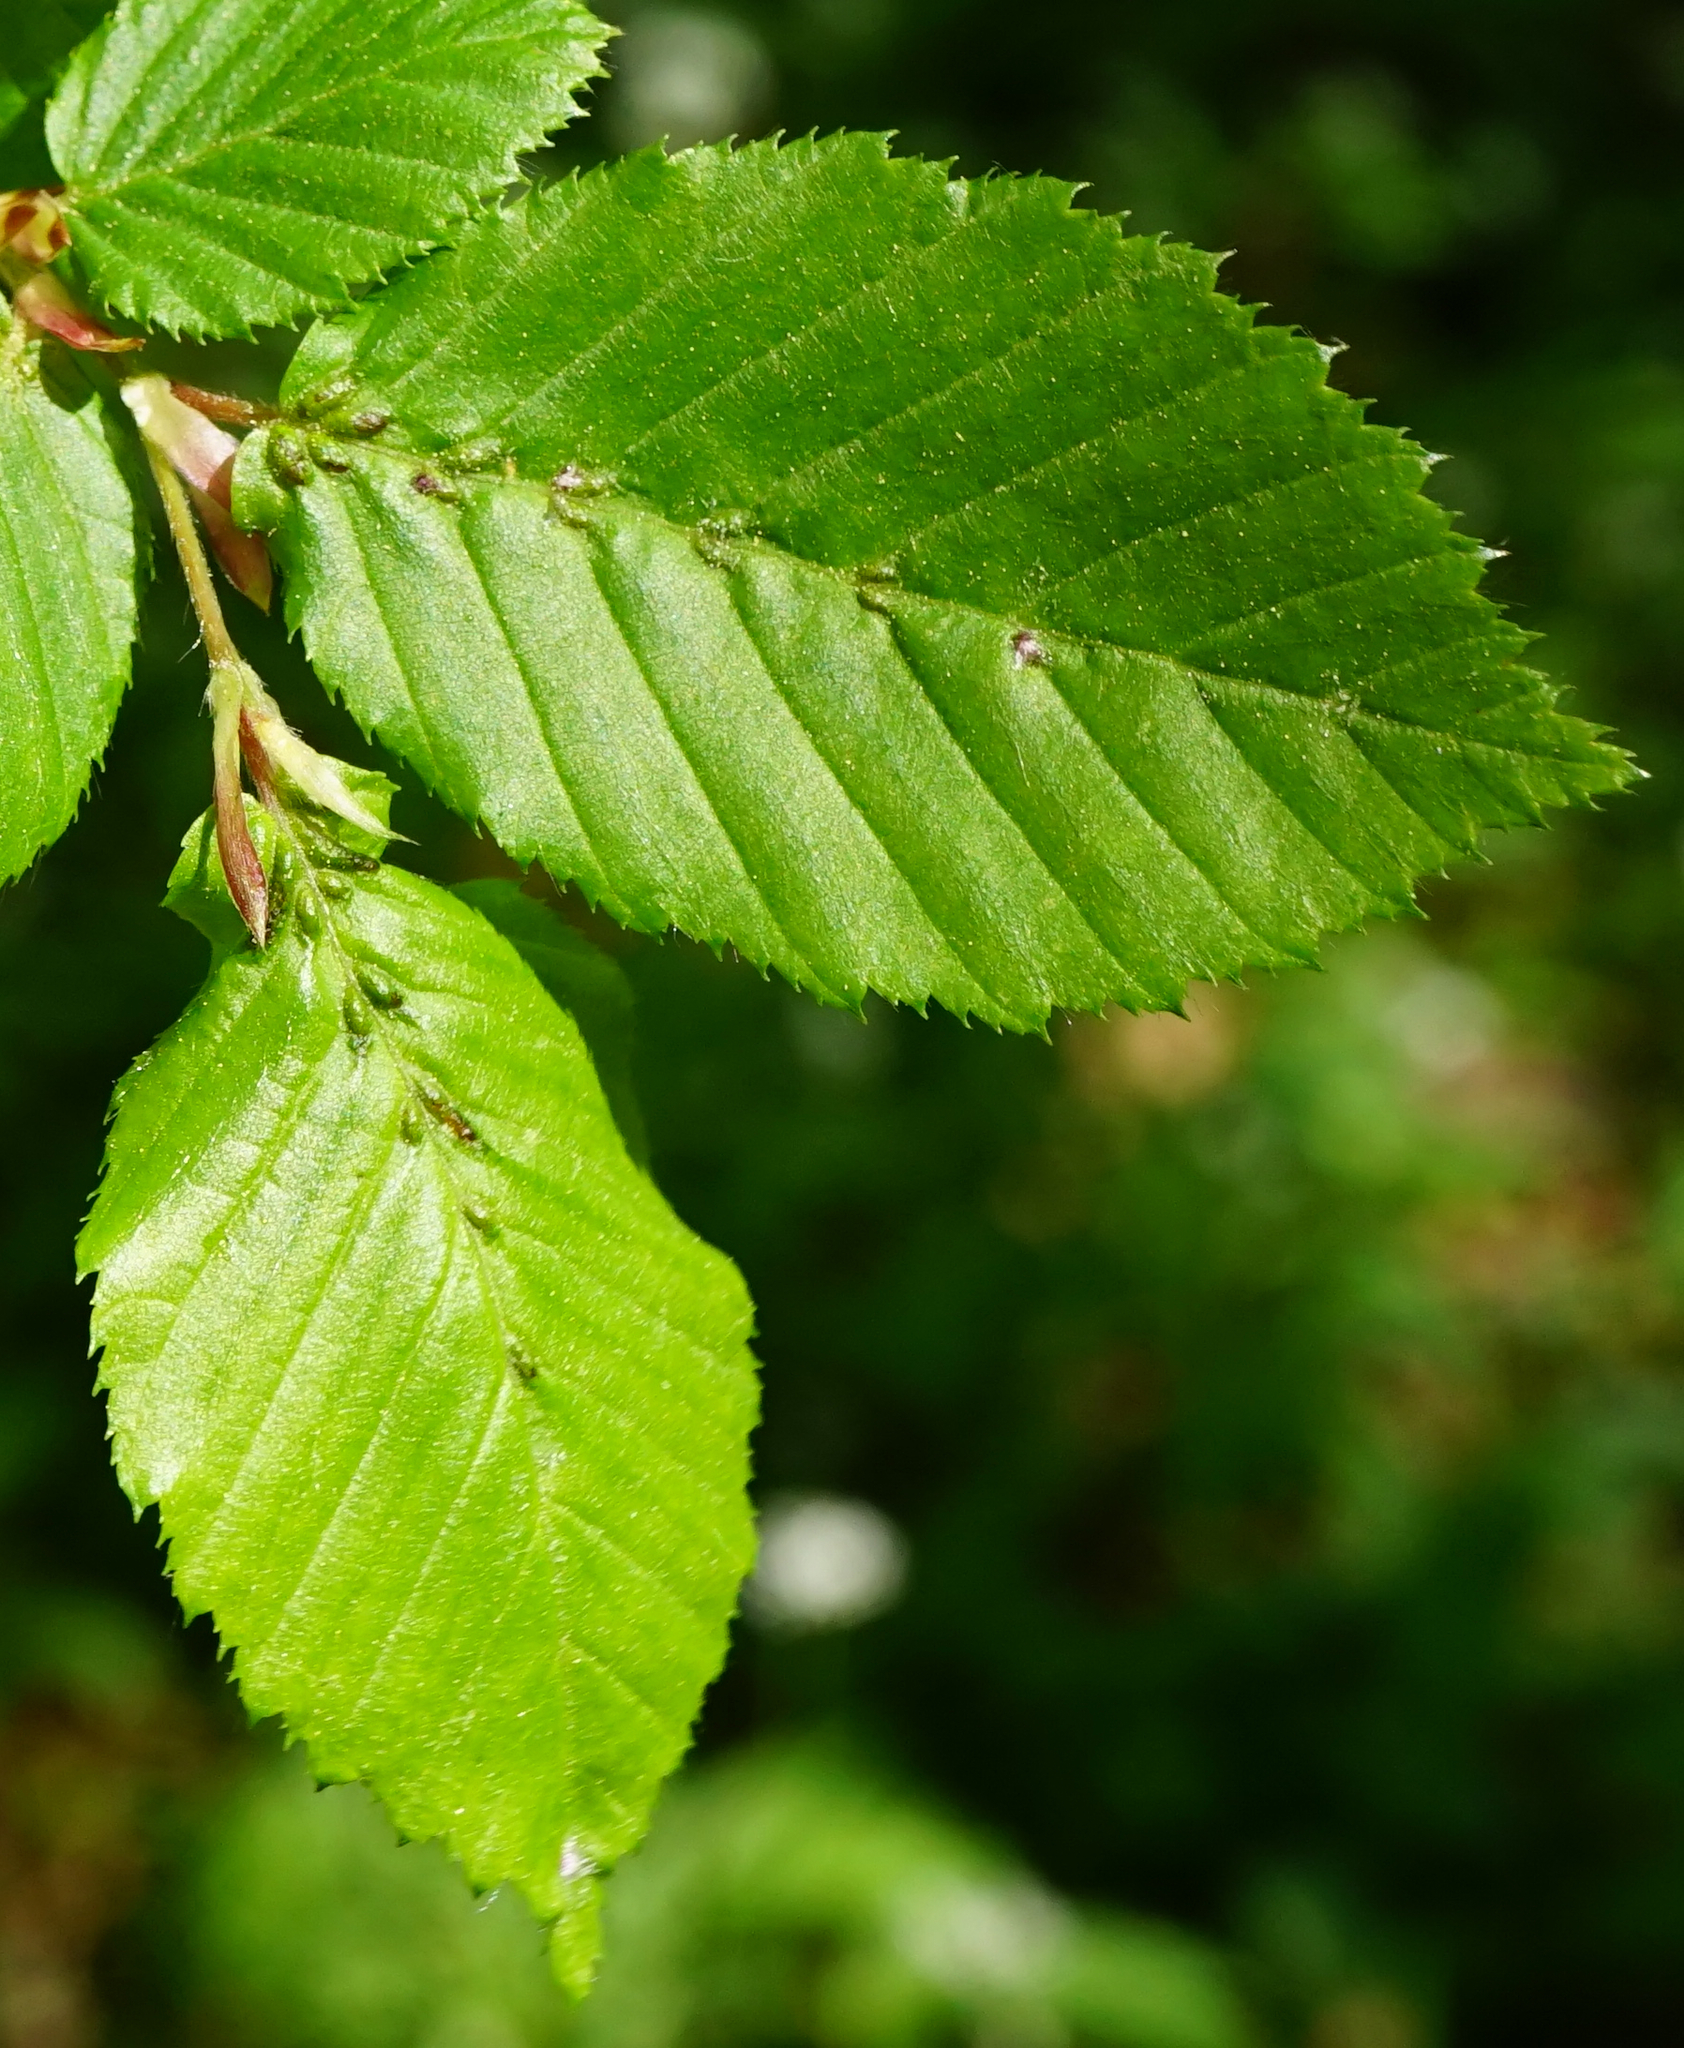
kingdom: Animalia
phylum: Arthropoda
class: Arachnida
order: Trombidiformes
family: Eriophyidae
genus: Aceria
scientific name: Aceria tenellus
